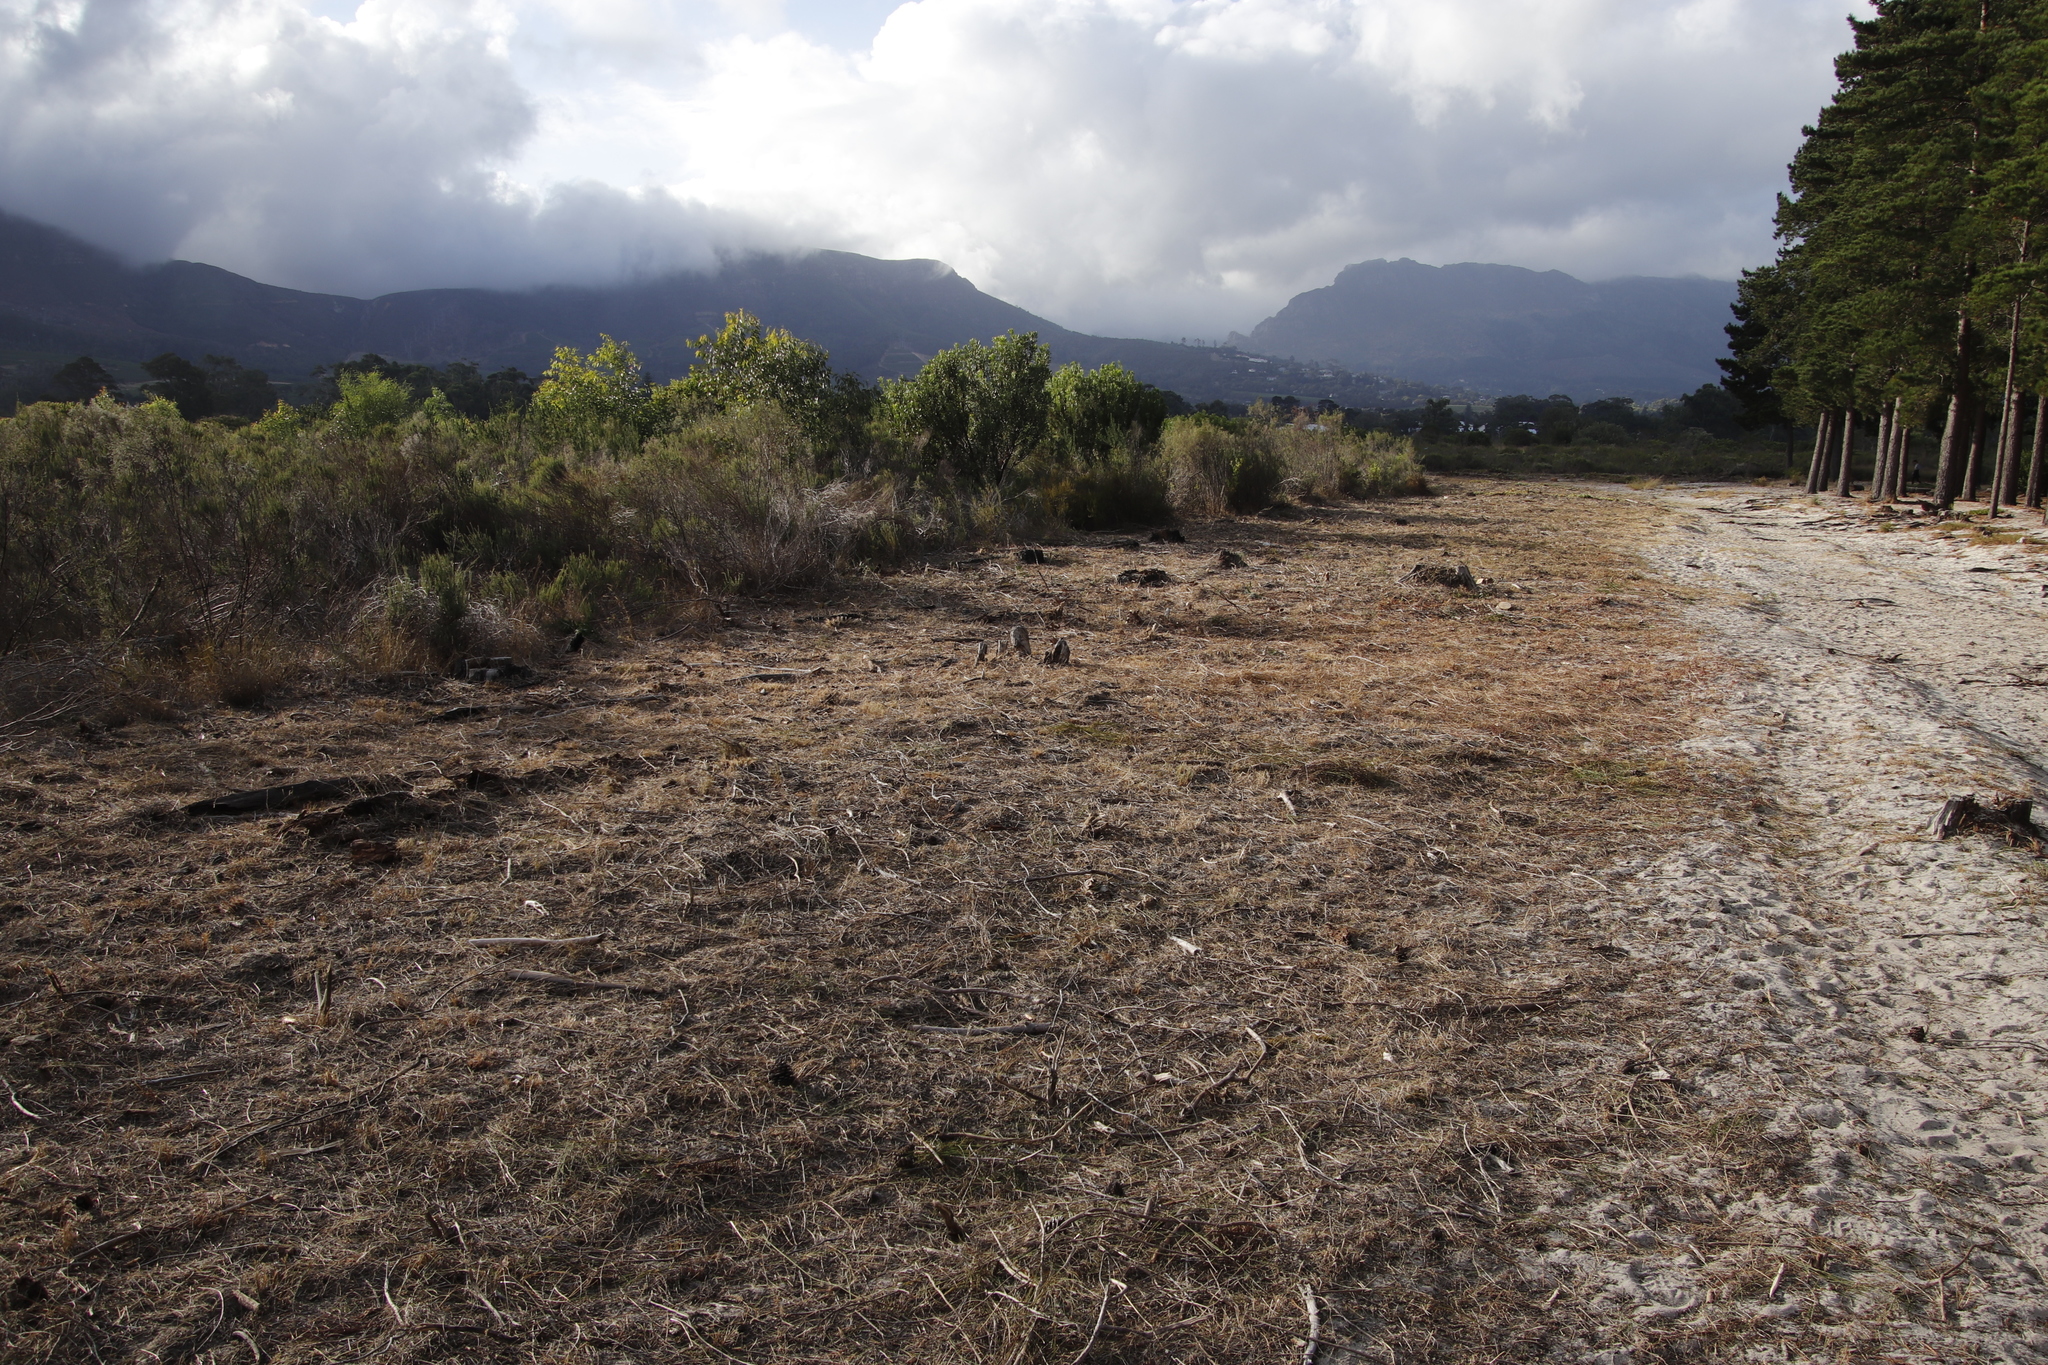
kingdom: Plantae
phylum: Tracheophyta
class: Pinopsida
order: Pinales
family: Pinaceae
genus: Pinus
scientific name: Pinus radiata
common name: Monterey pine
